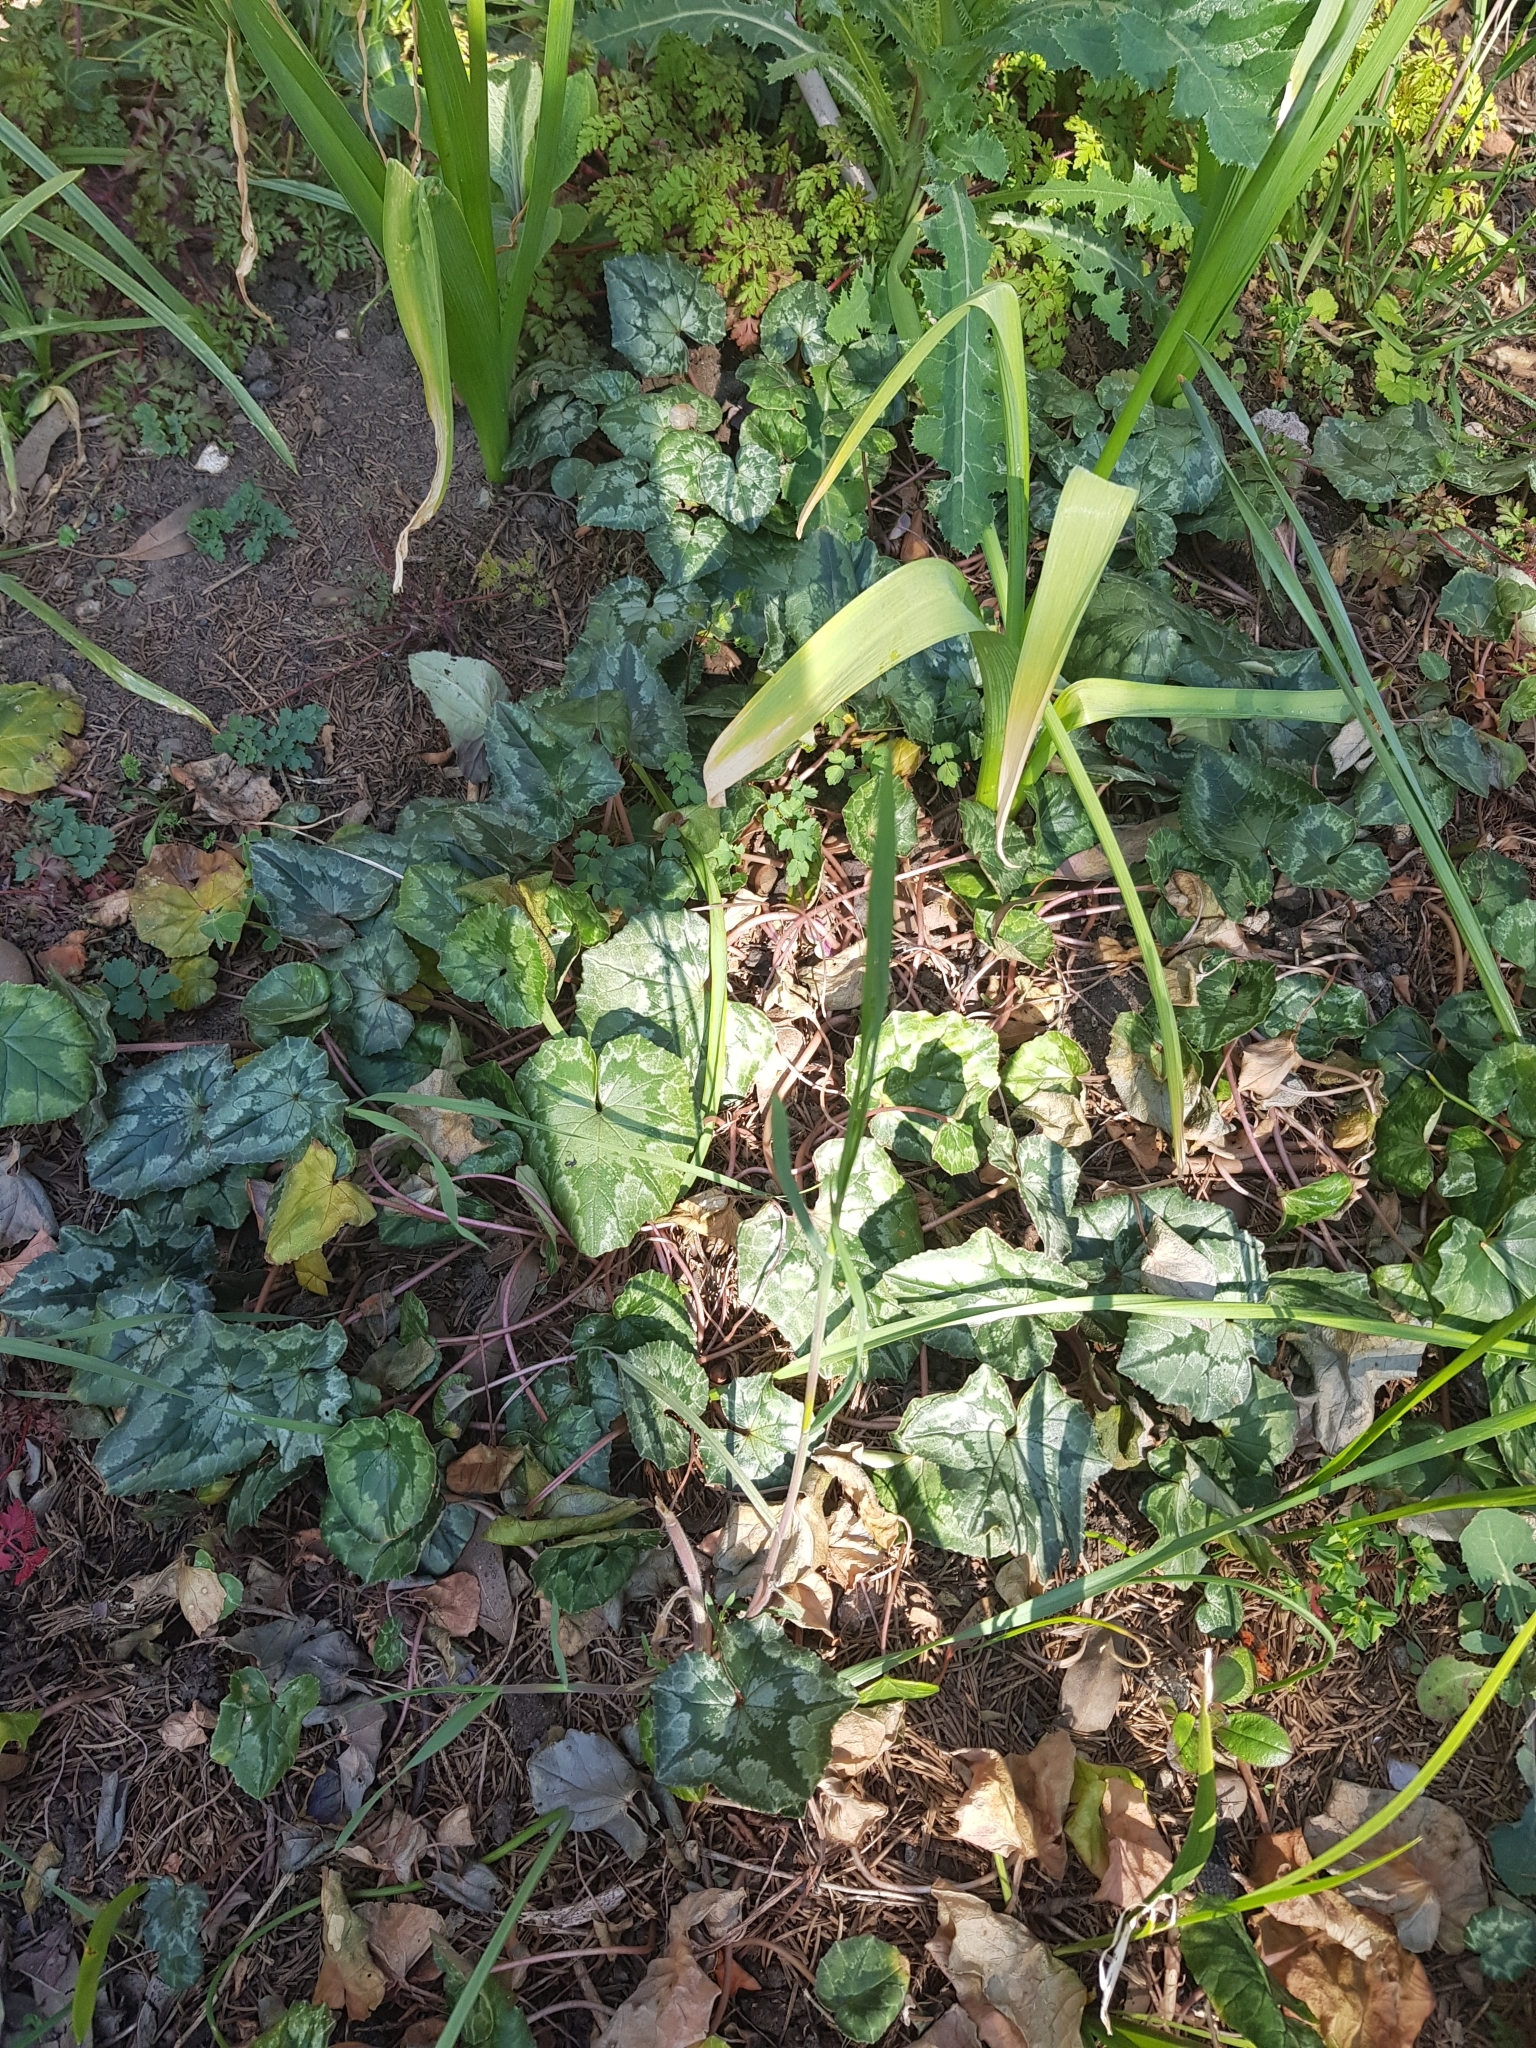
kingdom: Plantae
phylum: Tracheophyta
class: Magnoliopsida
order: Ericales
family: Primulaceae
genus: Cyclamen
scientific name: Cyclamen hederifolium
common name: Sowbread
